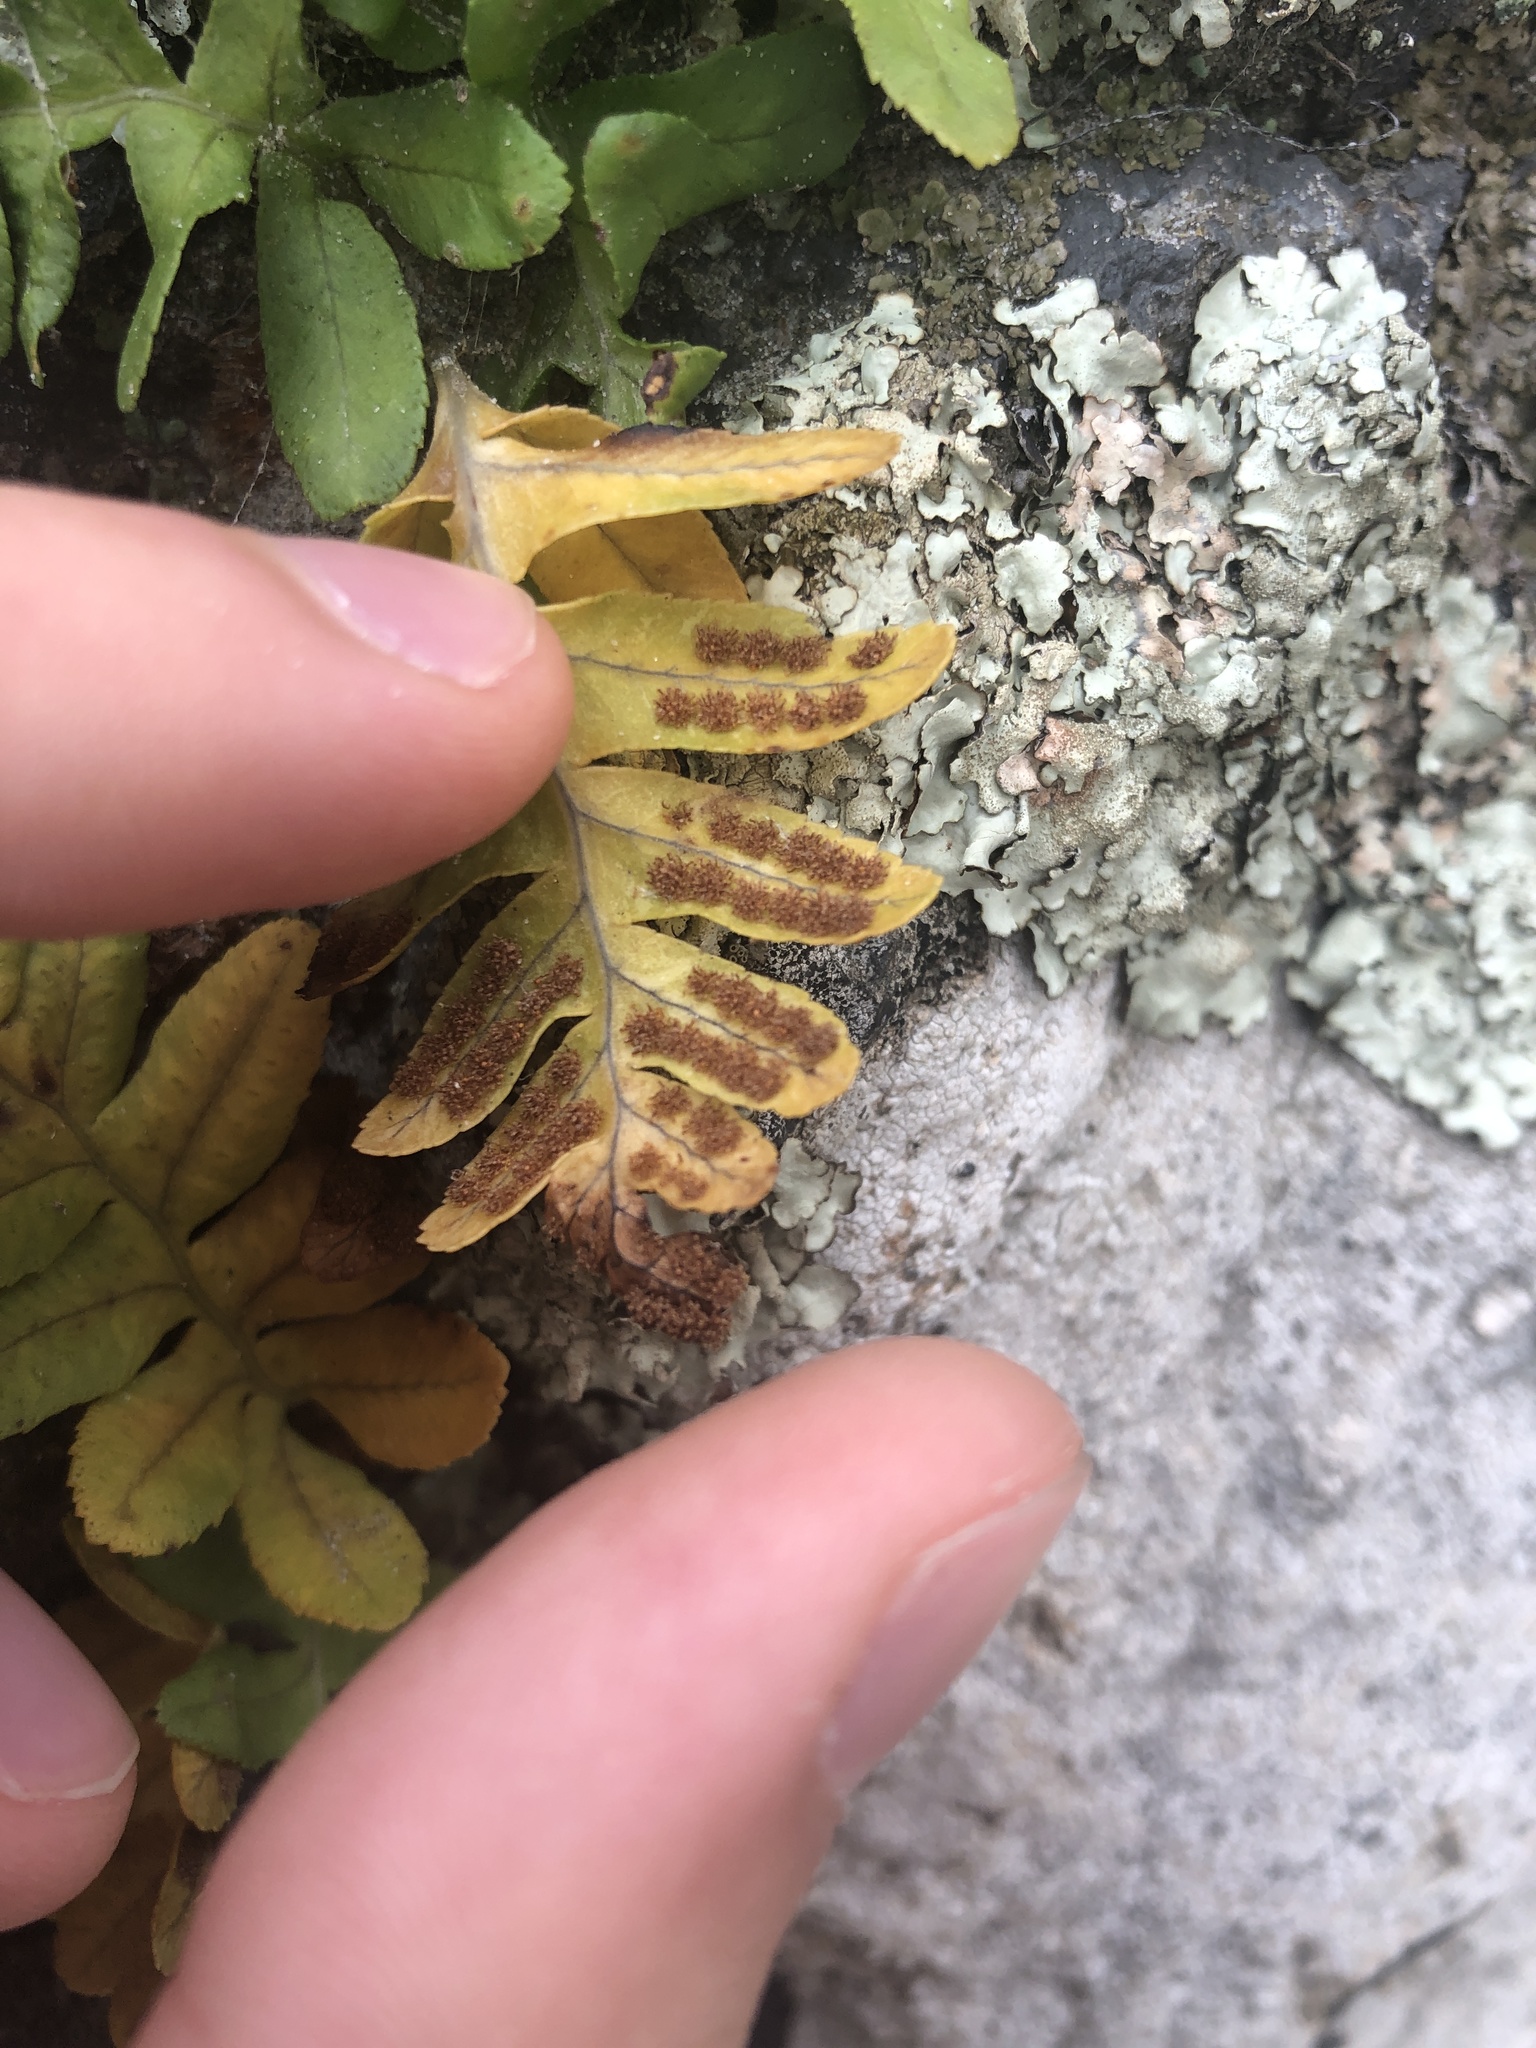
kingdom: Plantae
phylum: Tracheophyta
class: Polypodiopsida
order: Polypodiales
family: Polypodiaceae
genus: Polypodium
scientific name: Polypodium vulgare
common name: Common polypody
